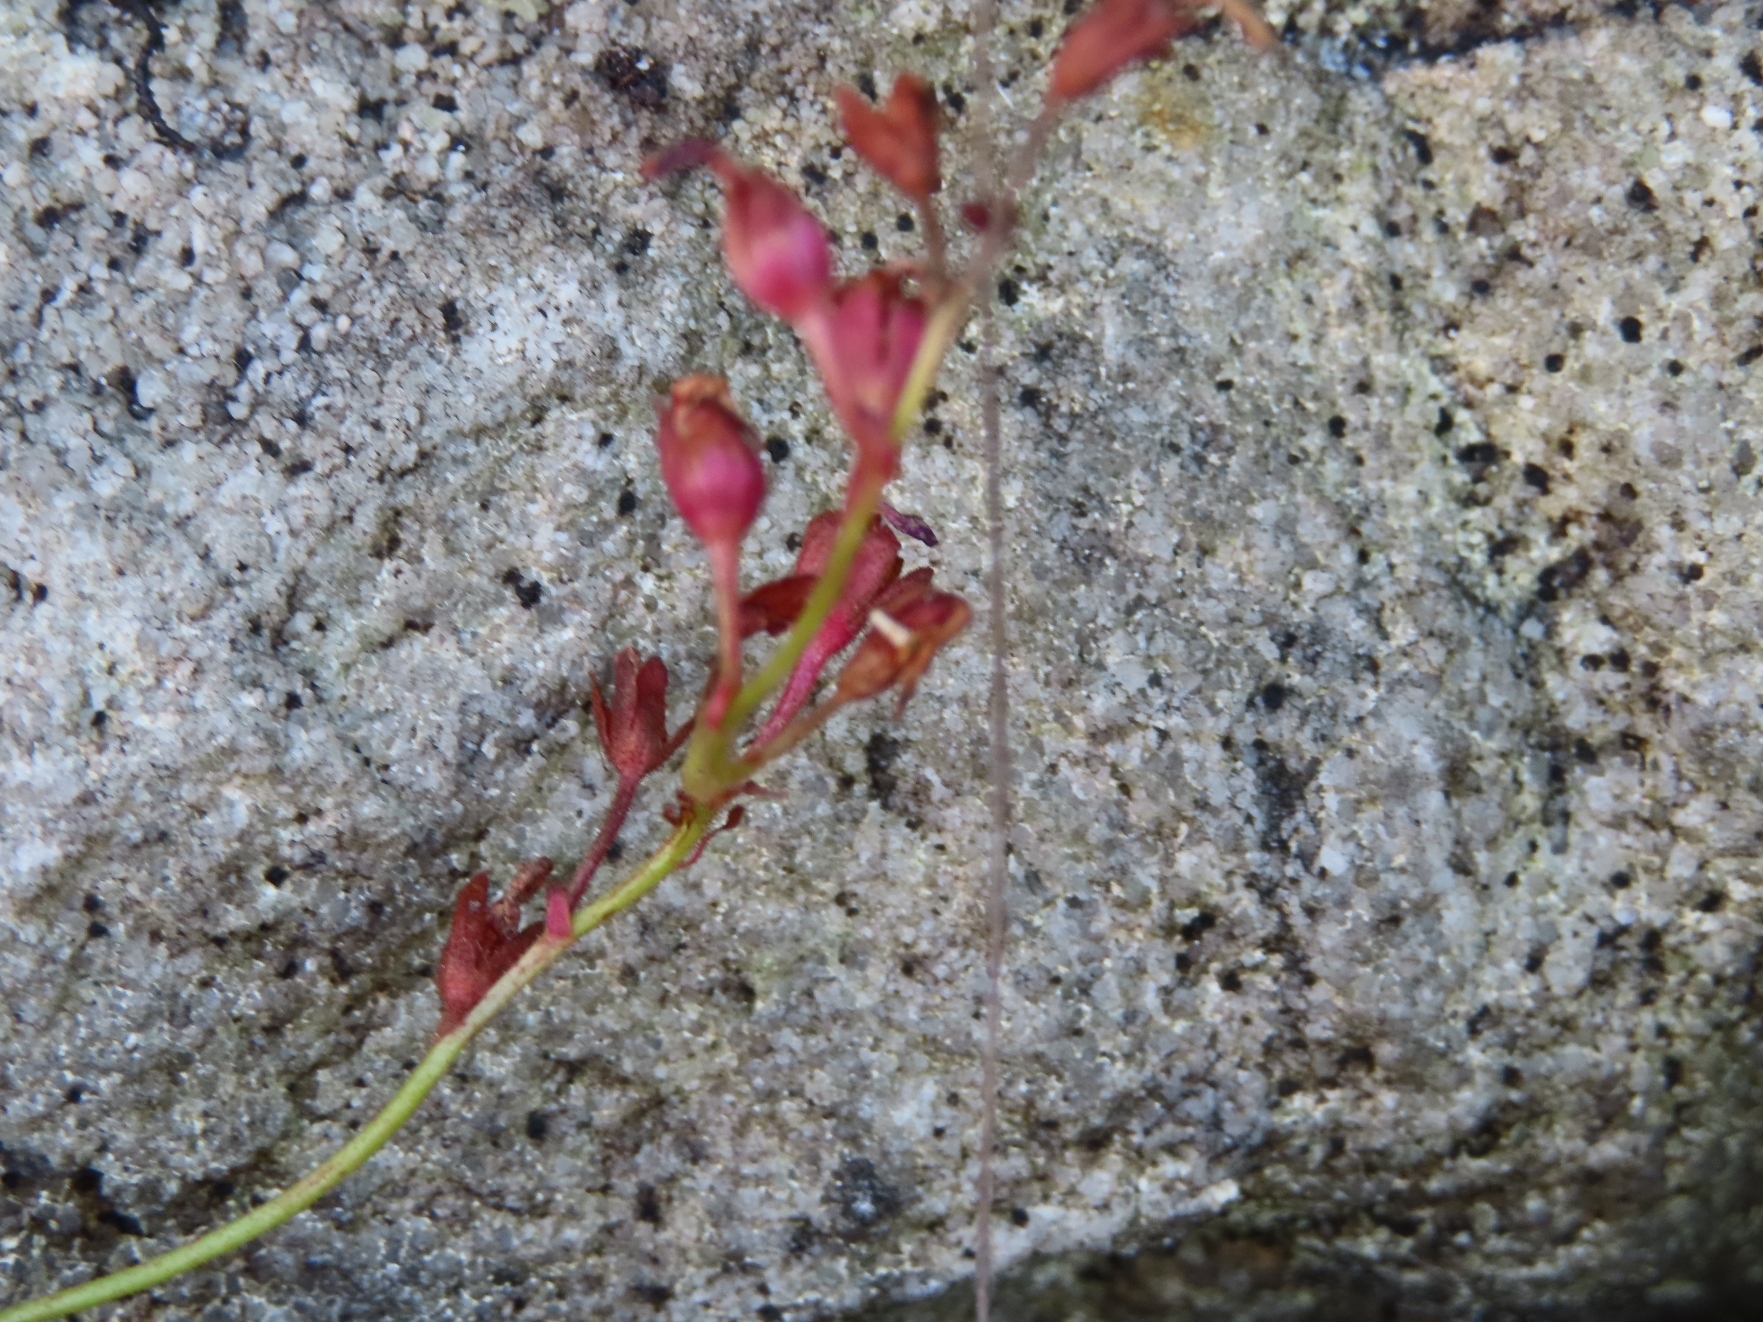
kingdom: Plantae
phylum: Tracheophyta
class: Magnoliopsida
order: Caryophyllales
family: Droseraceae
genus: Drosera
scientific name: Drosera glabripes
